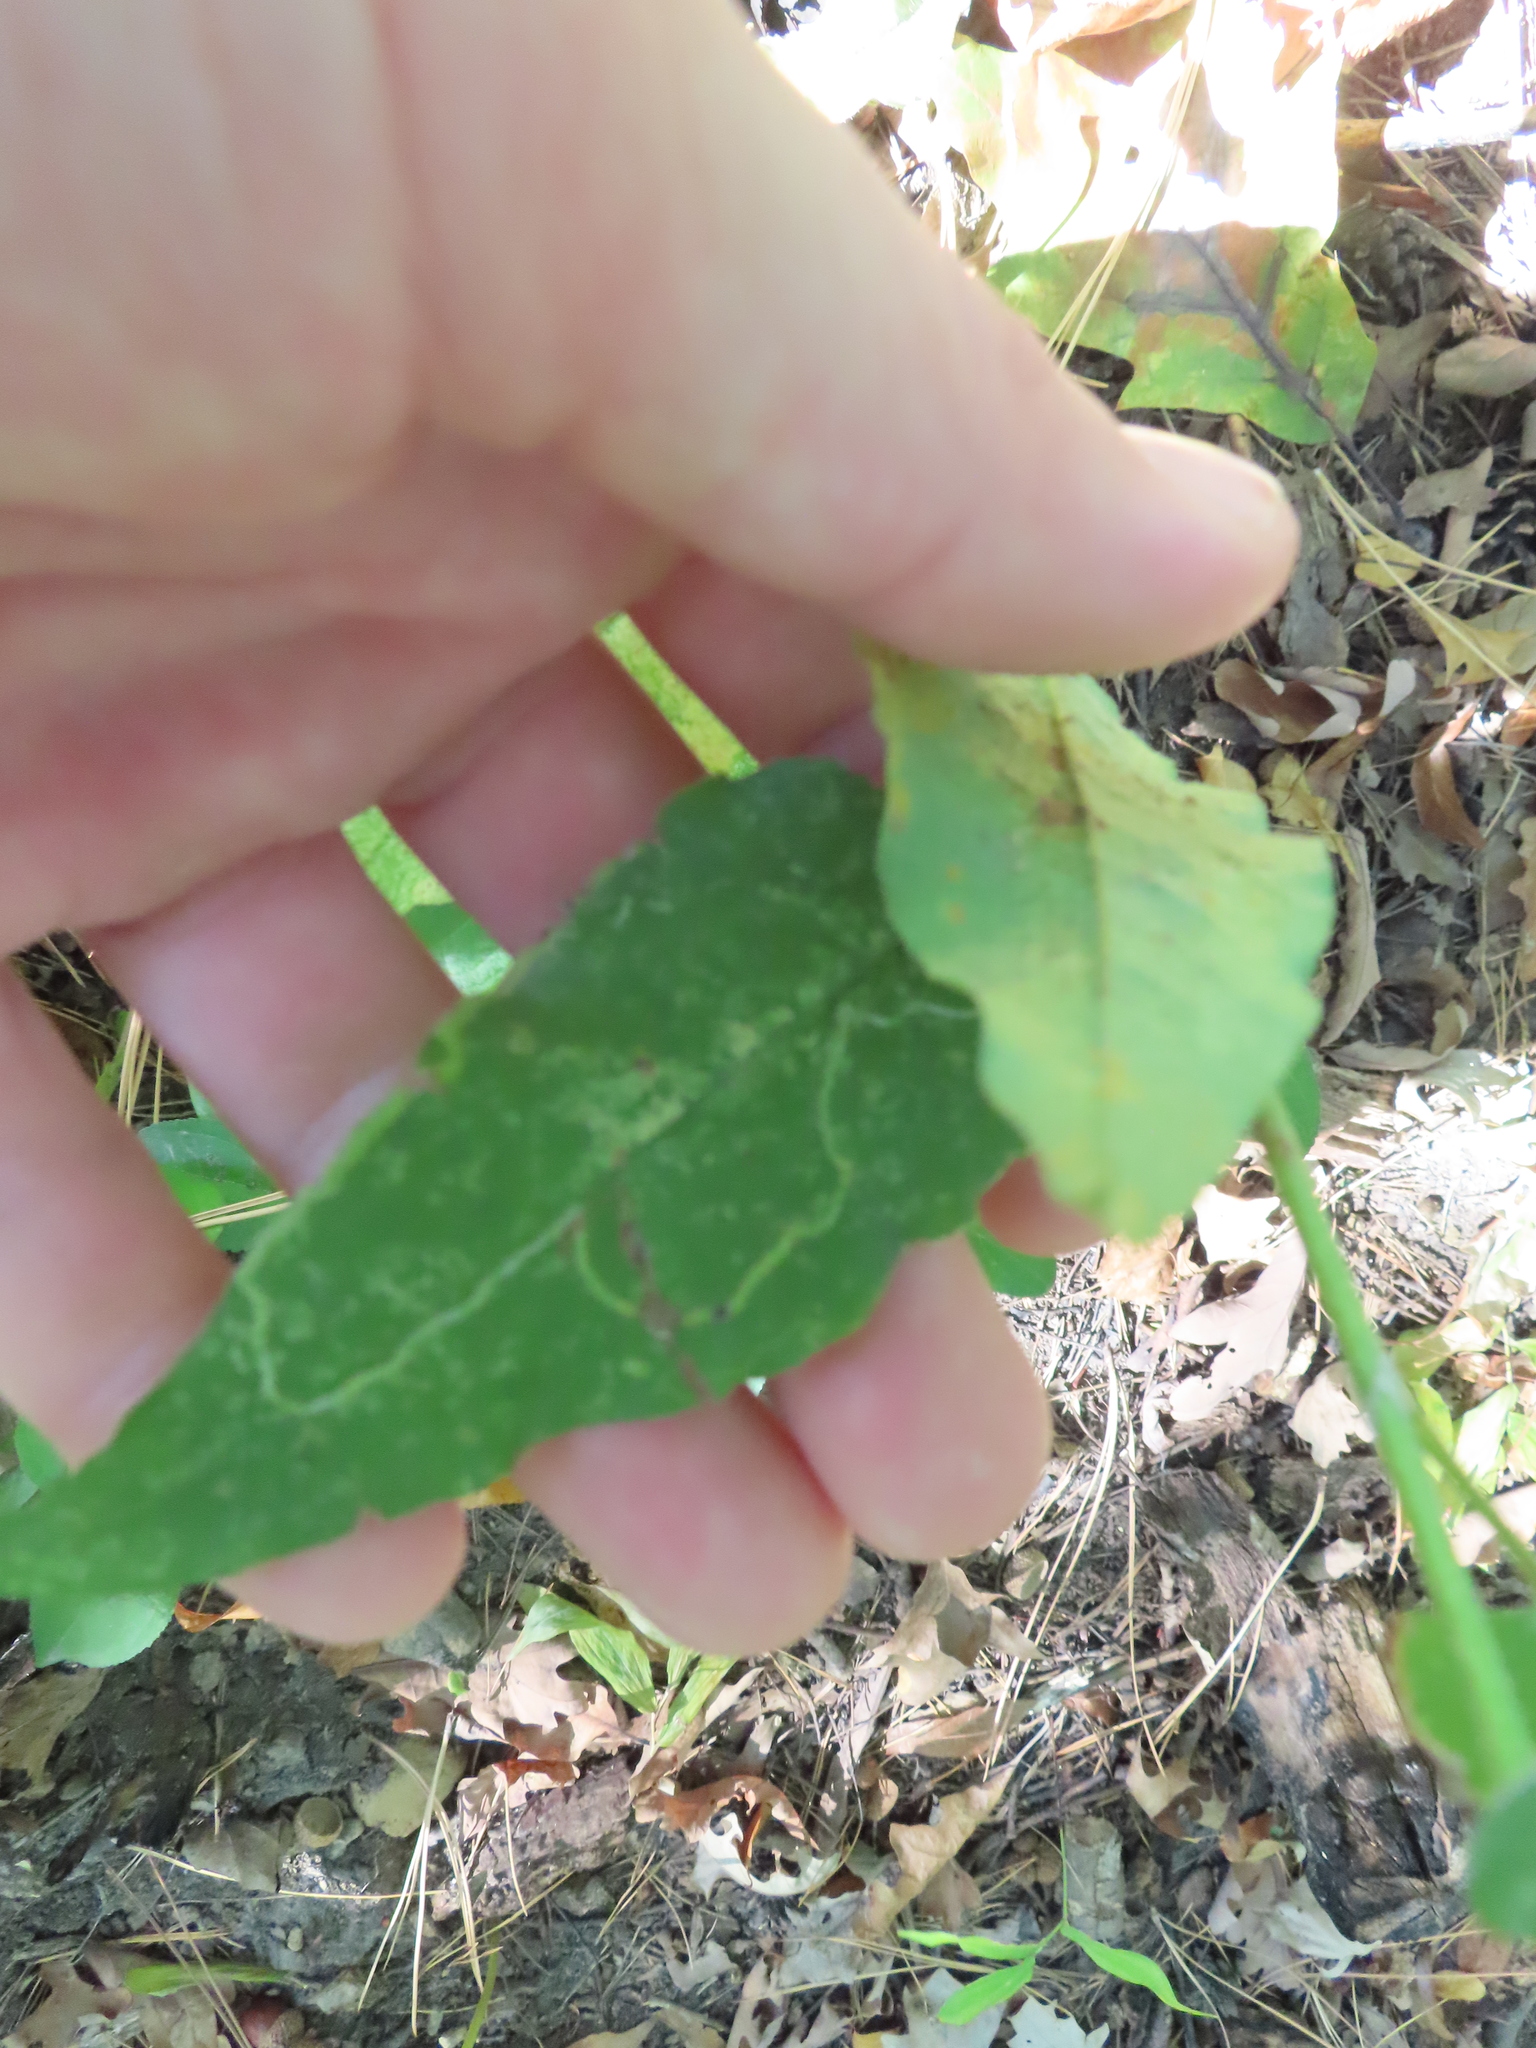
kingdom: Animalia
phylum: Arthropoda
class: Insecta
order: Diptera
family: Agromyzidae
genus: Ophiomyia
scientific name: Ophiomyia parda
